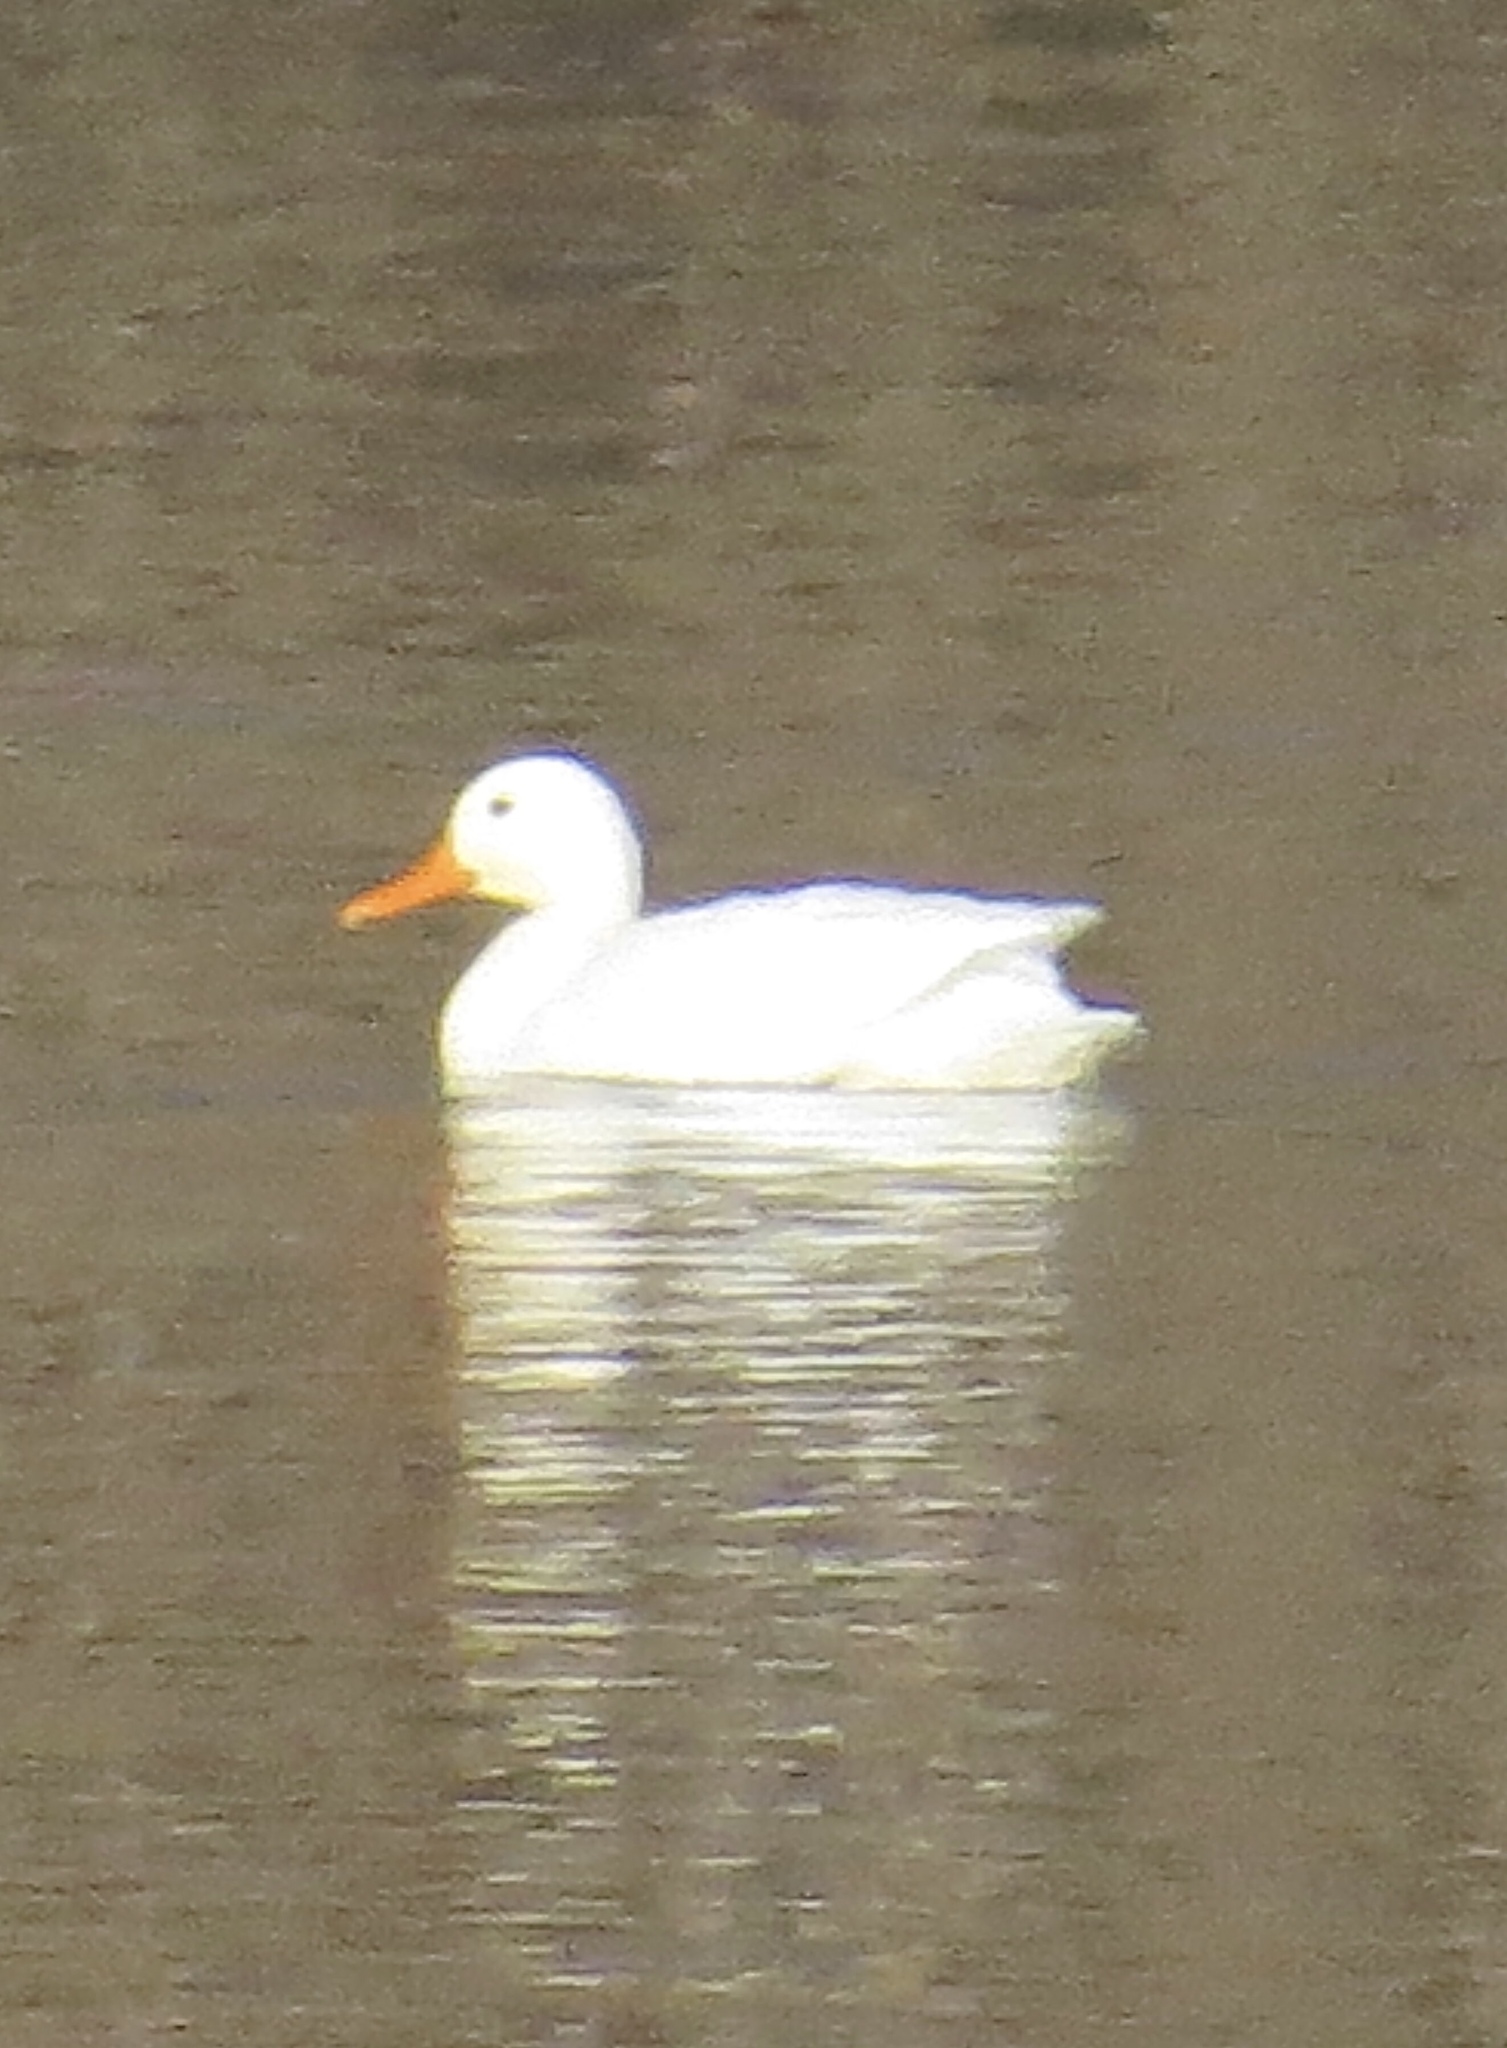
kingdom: Animalia
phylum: Chordata
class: Aves
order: Anseriformes
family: Anatidae
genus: Anas
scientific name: Anas platyrhynchos
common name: Mallard
